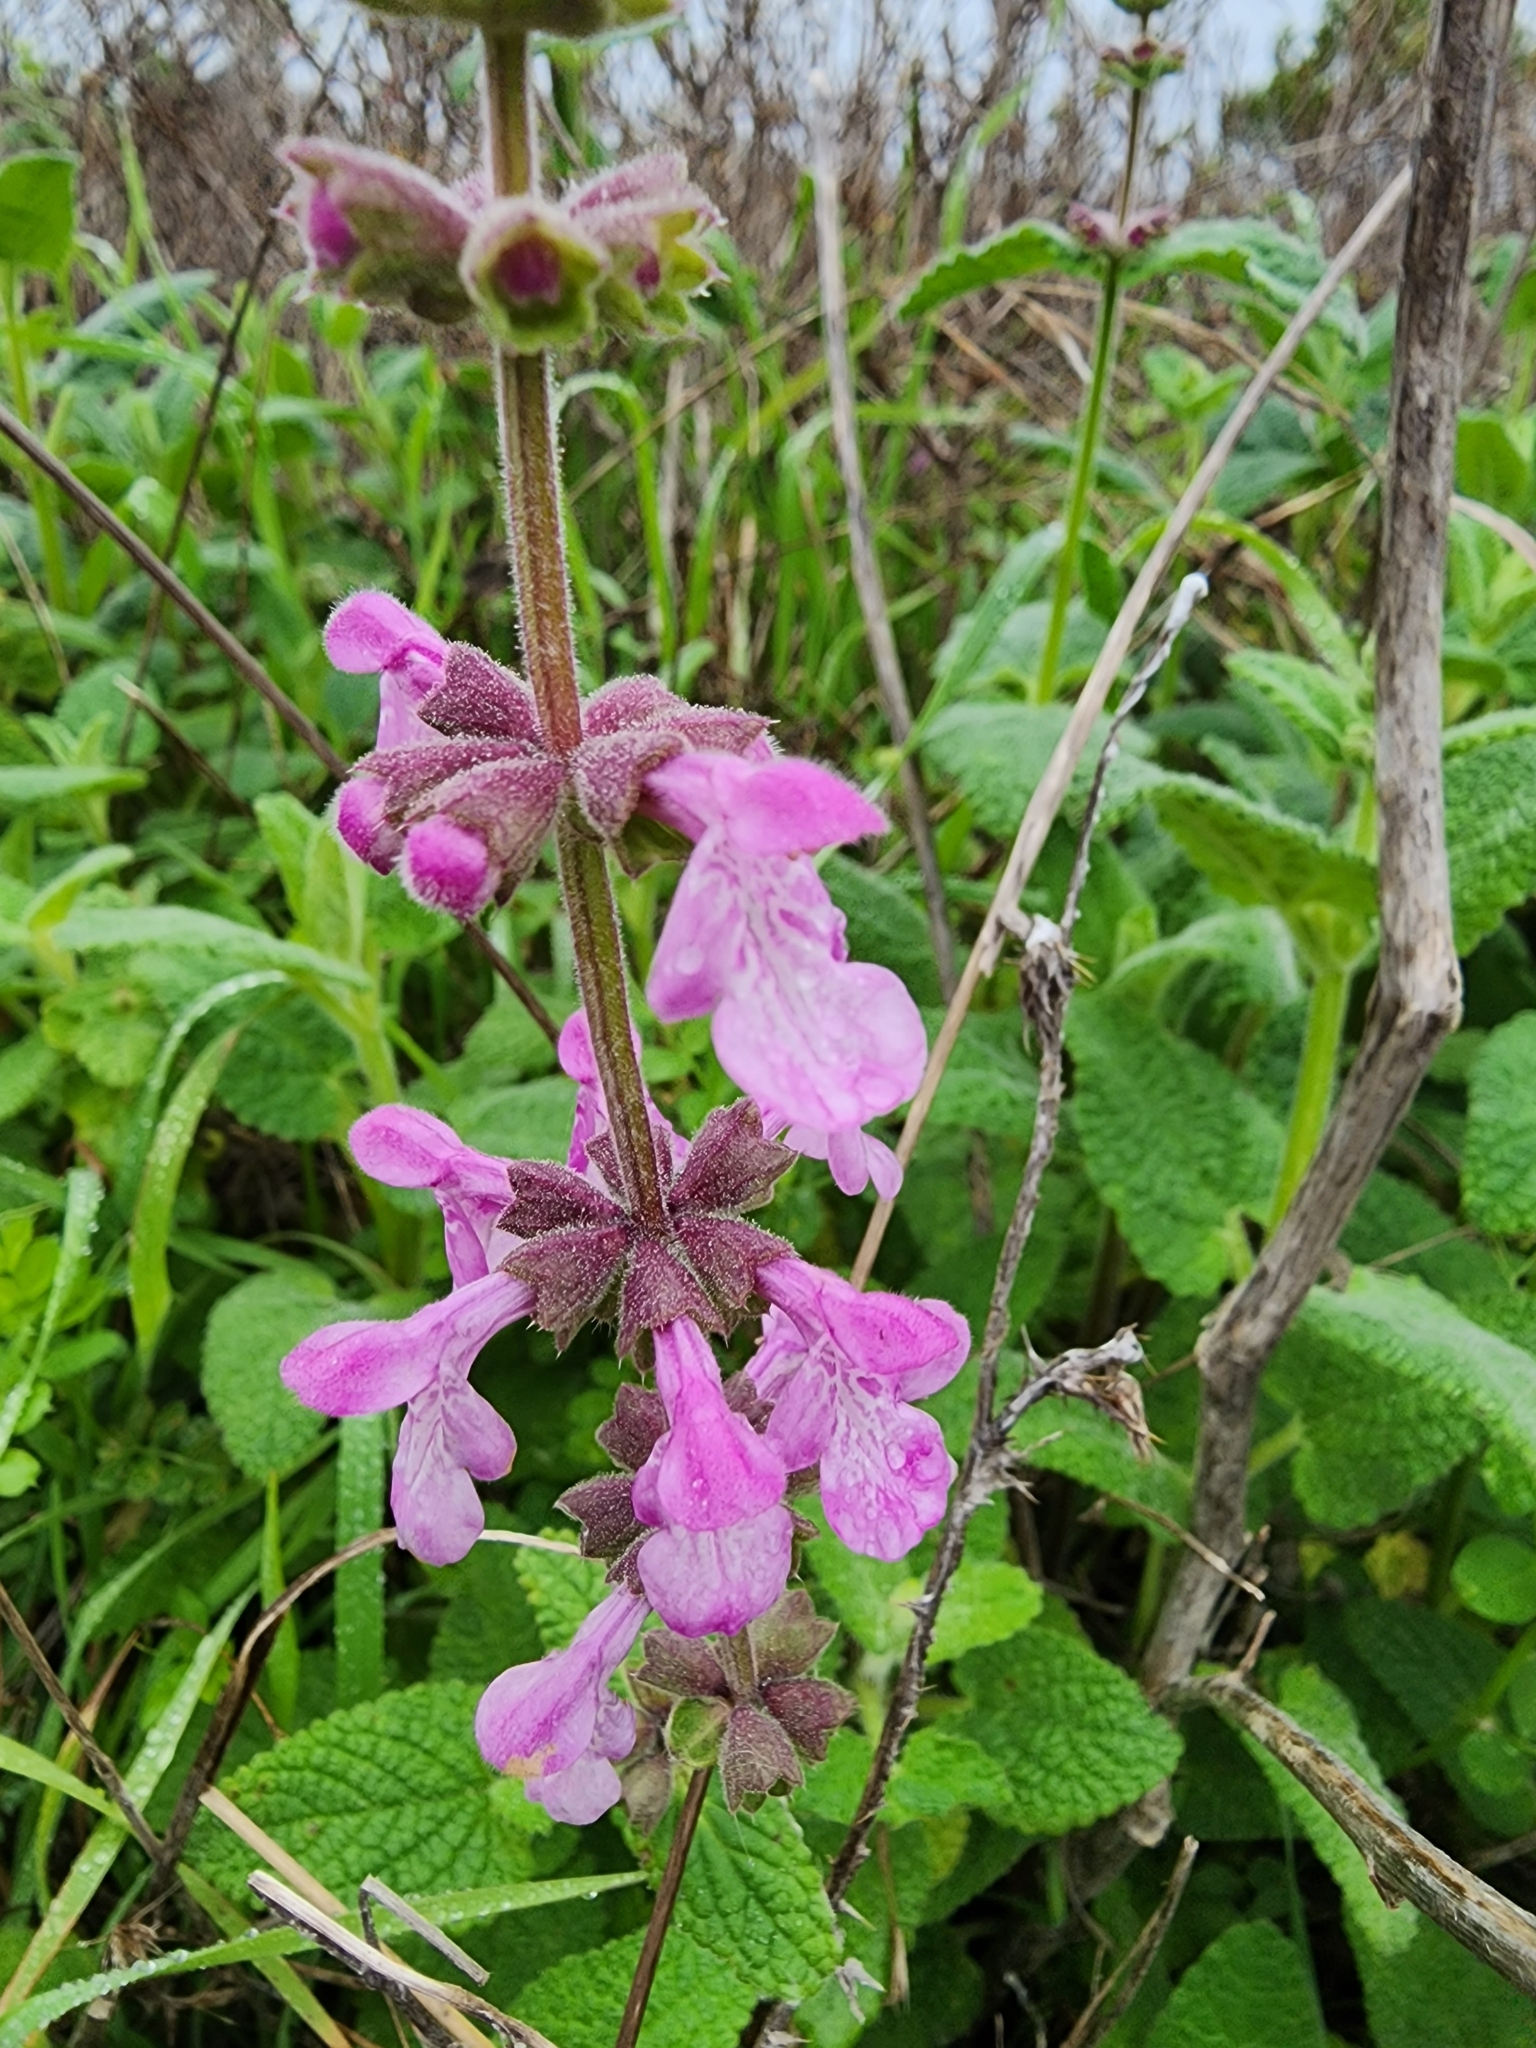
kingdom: Plantae
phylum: Tracheophyta
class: Magnoliopsida
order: Lamiales
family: Lamiaceae
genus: Stachys
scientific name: Stachys bullata
